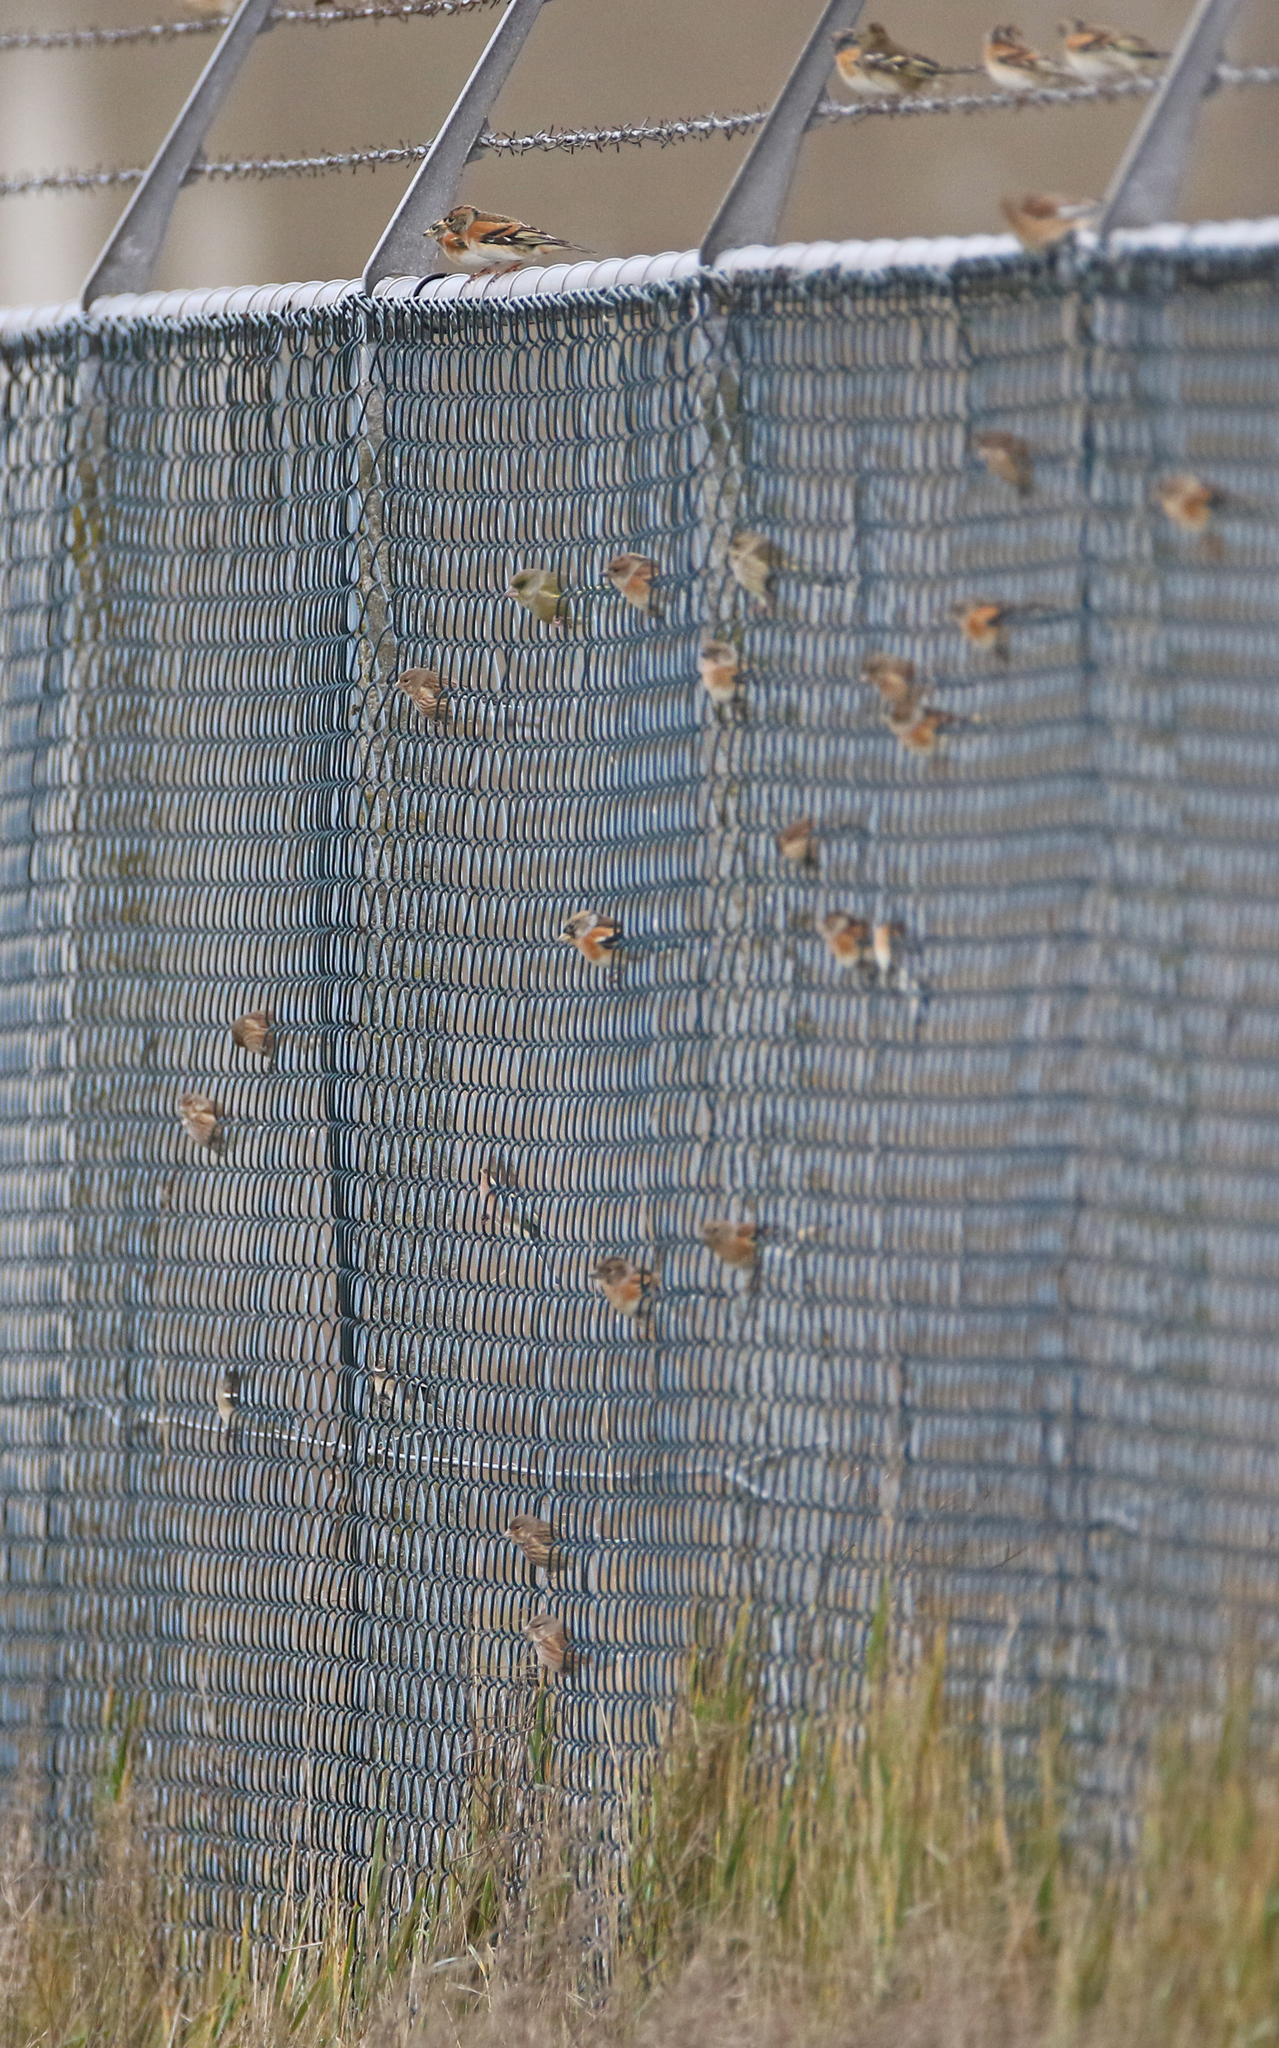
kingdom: Plantae
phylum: Tracheophyta
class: Liliopsida
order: Poales
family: Poaceae
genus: Chloris
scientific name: Chloris chloris
